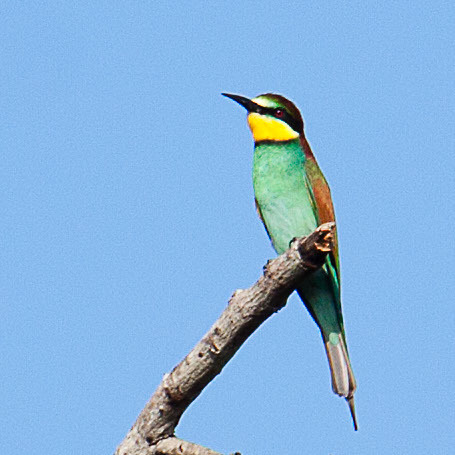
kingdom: Animalia
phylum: Chordata
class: Aves
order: Coraciiformes
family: Meropidae
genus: Merops
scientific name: Merops apiaster
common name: European bee-eater
